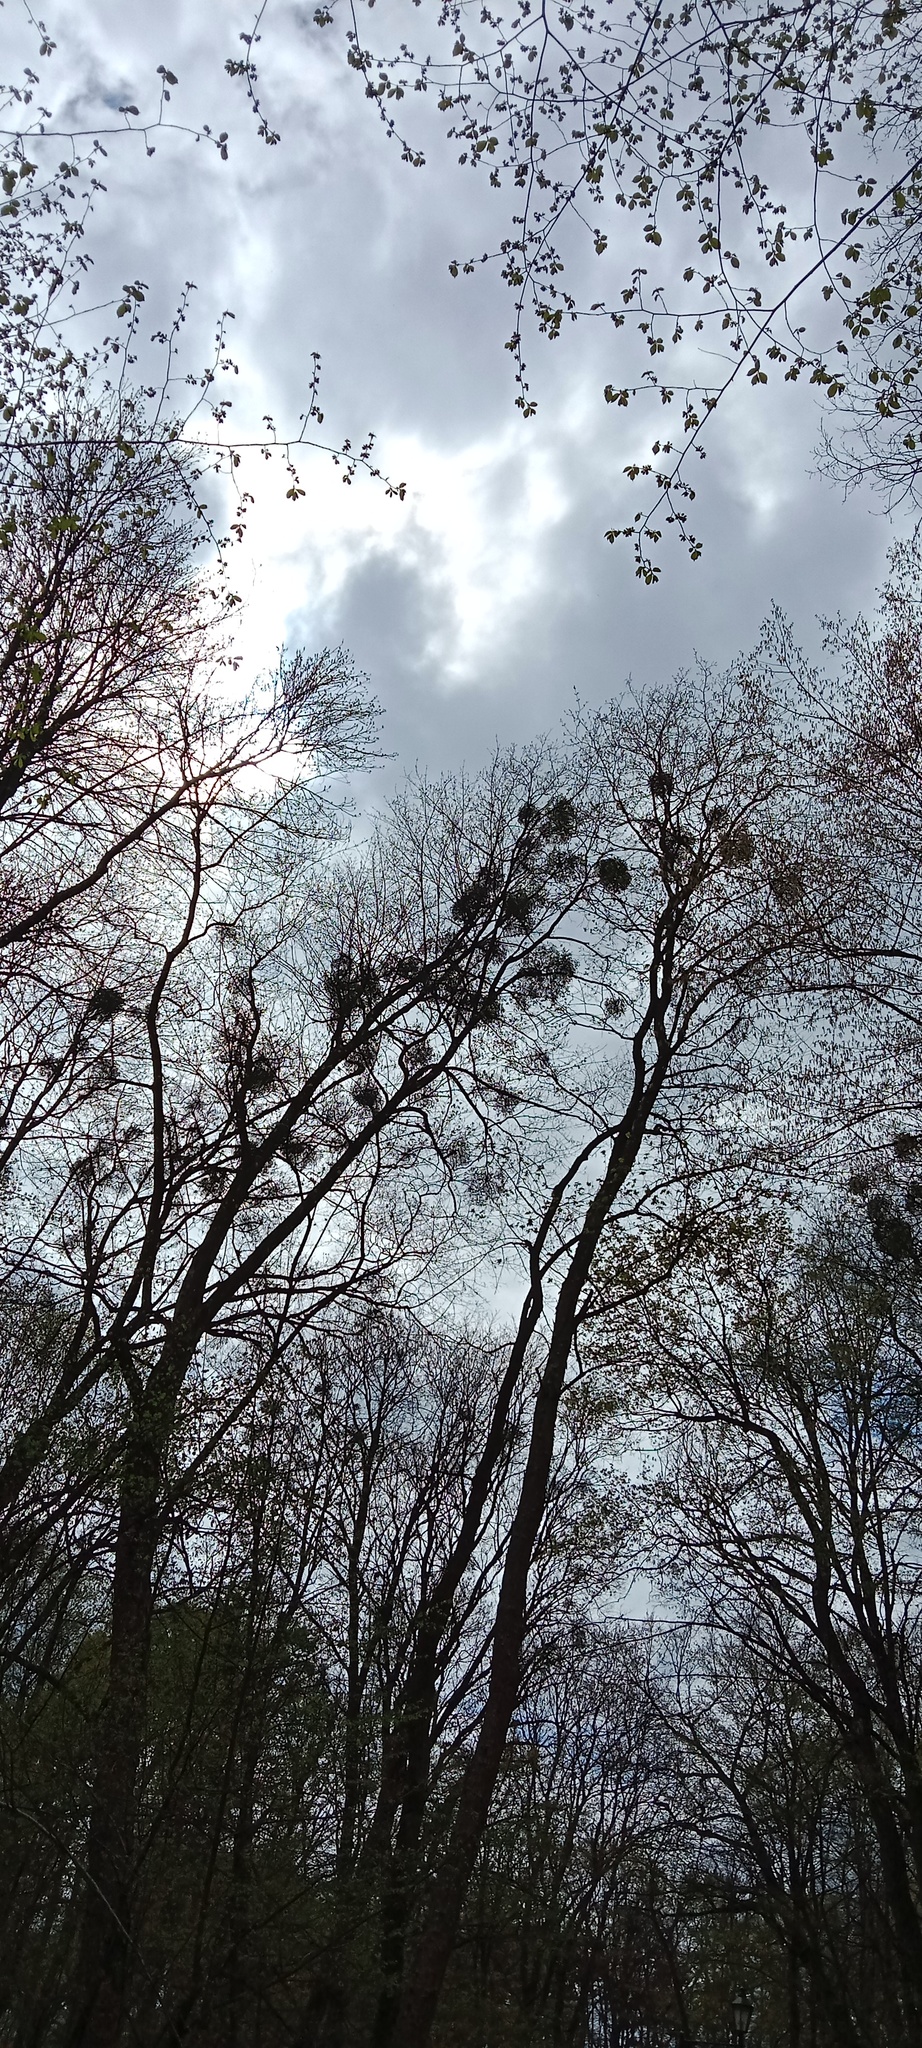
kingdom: Plantae
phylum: Tracheophyta
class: Magnoliopsida
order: Santalales
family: Viscaceae
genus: Viscum
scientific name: Viscum album
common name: Mistletoe
